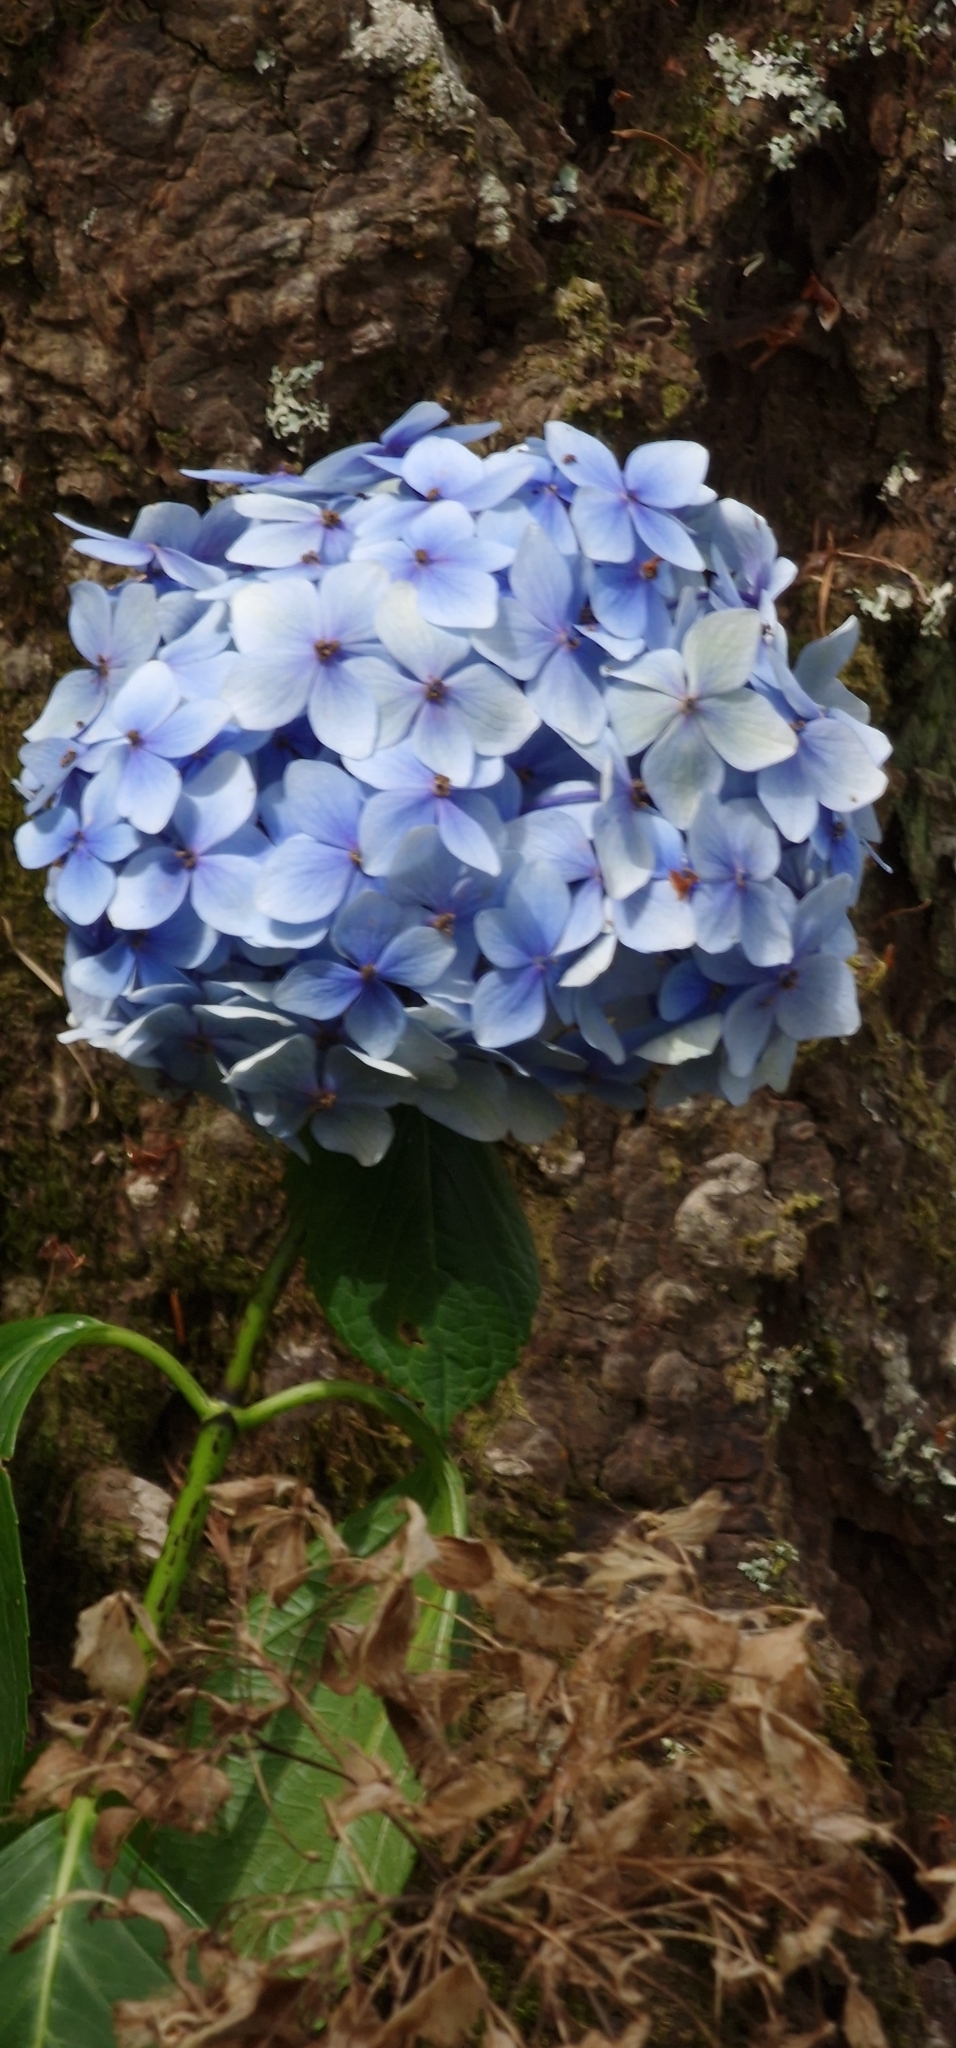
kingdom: Plantae
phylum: Tracheophyta
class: Magnoliopsida
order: Cornales
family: Hydrangeaceae
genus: Hydrangea
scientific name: Hydrangea macrophylla
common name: Hydrangea
